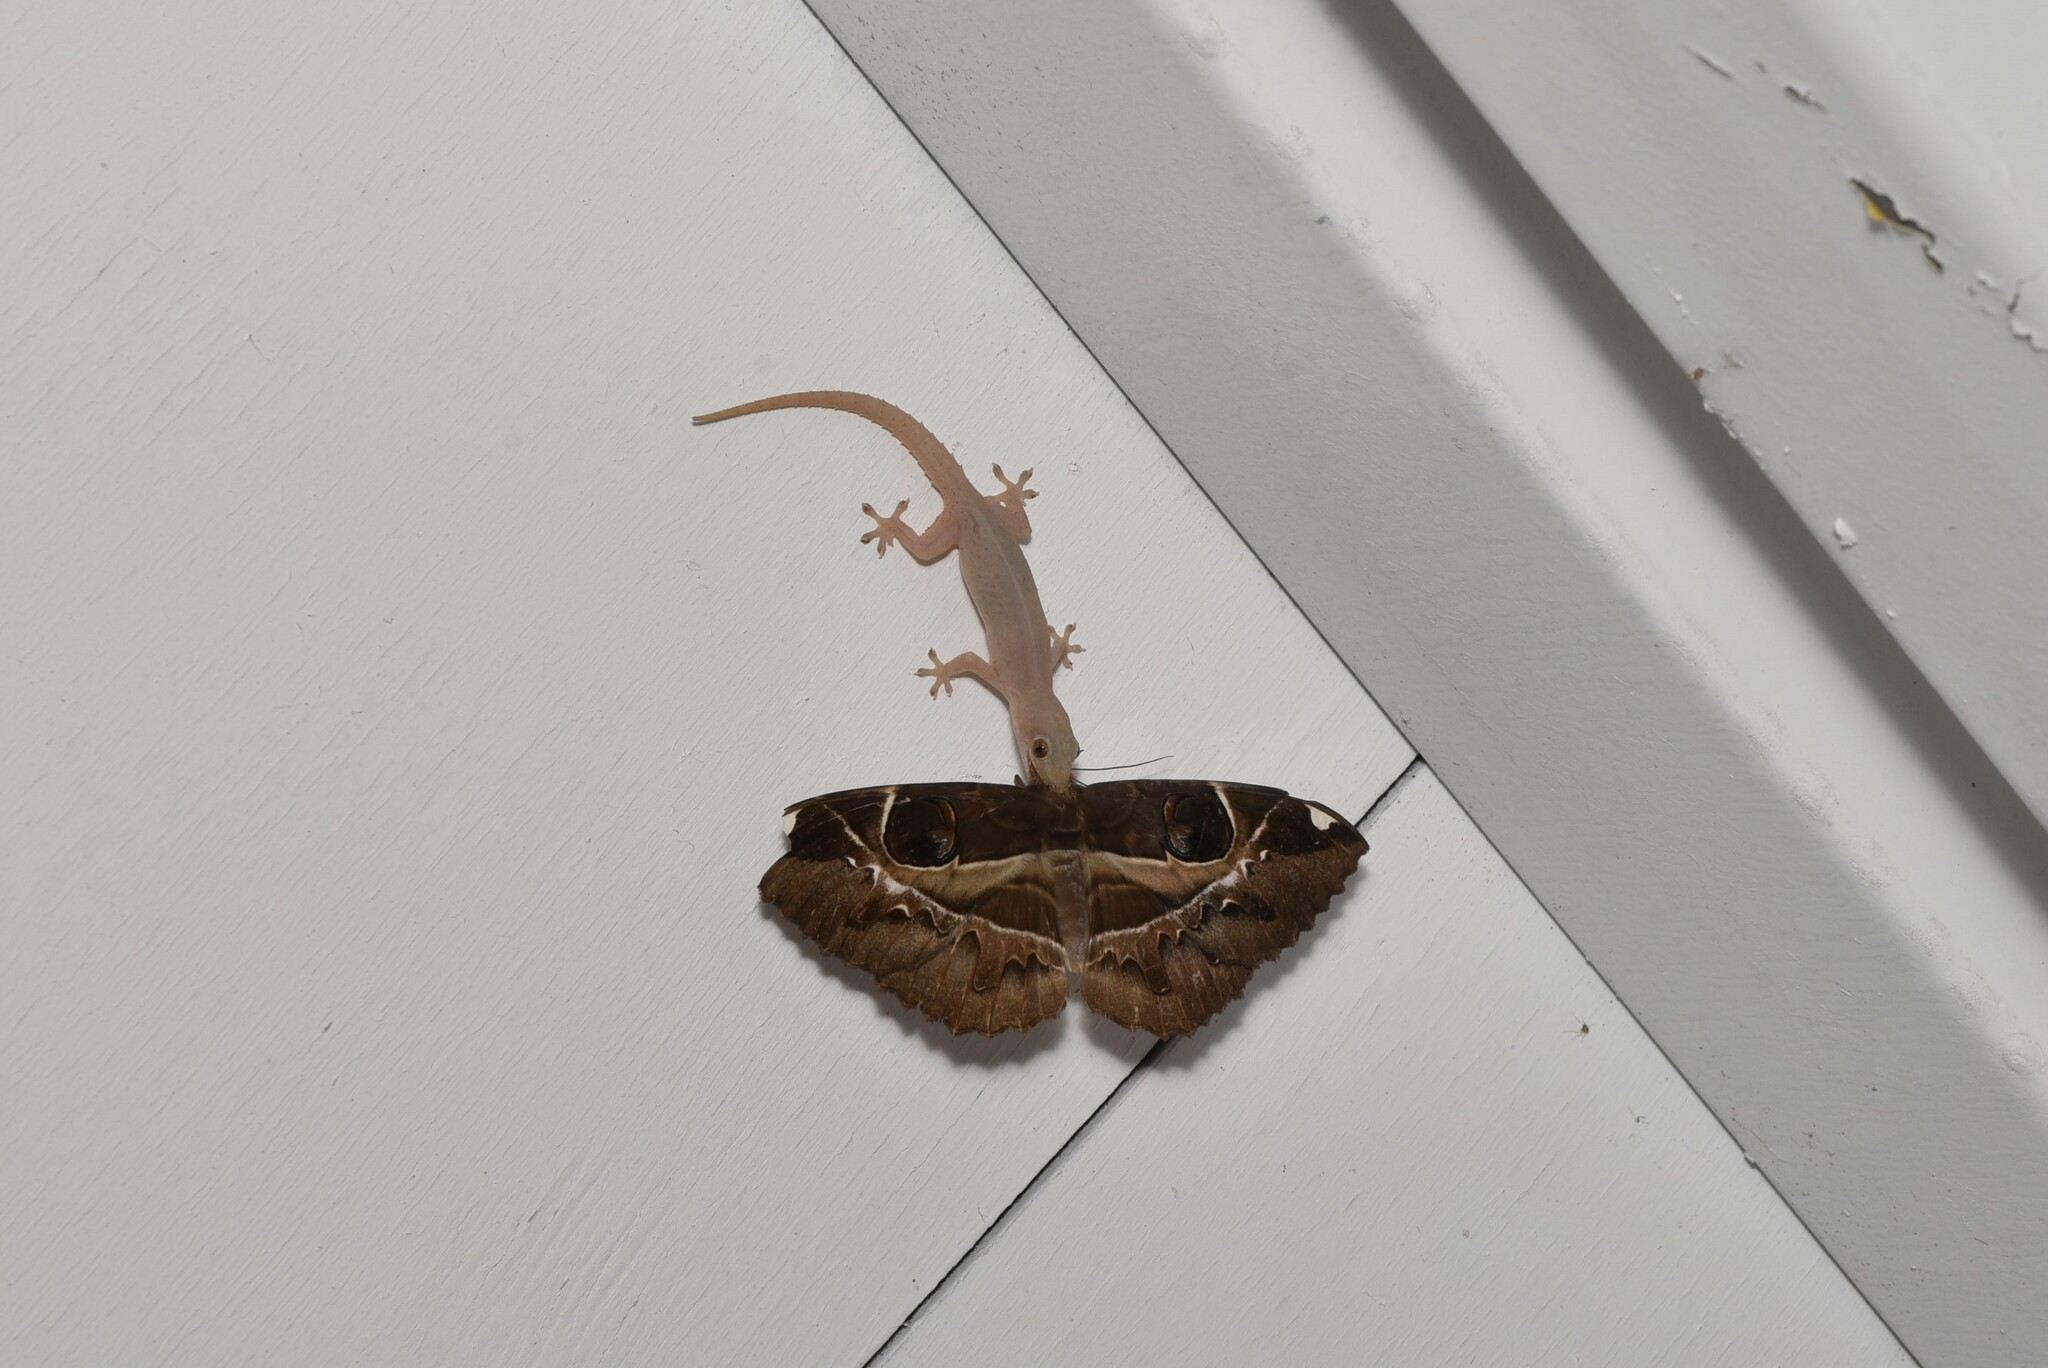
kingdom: Animalia
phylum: Chordata
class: Squamata
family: Gekkonidae
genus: Hemidactylus
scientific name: Hemidactylus frenatus
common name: Common house gecko
